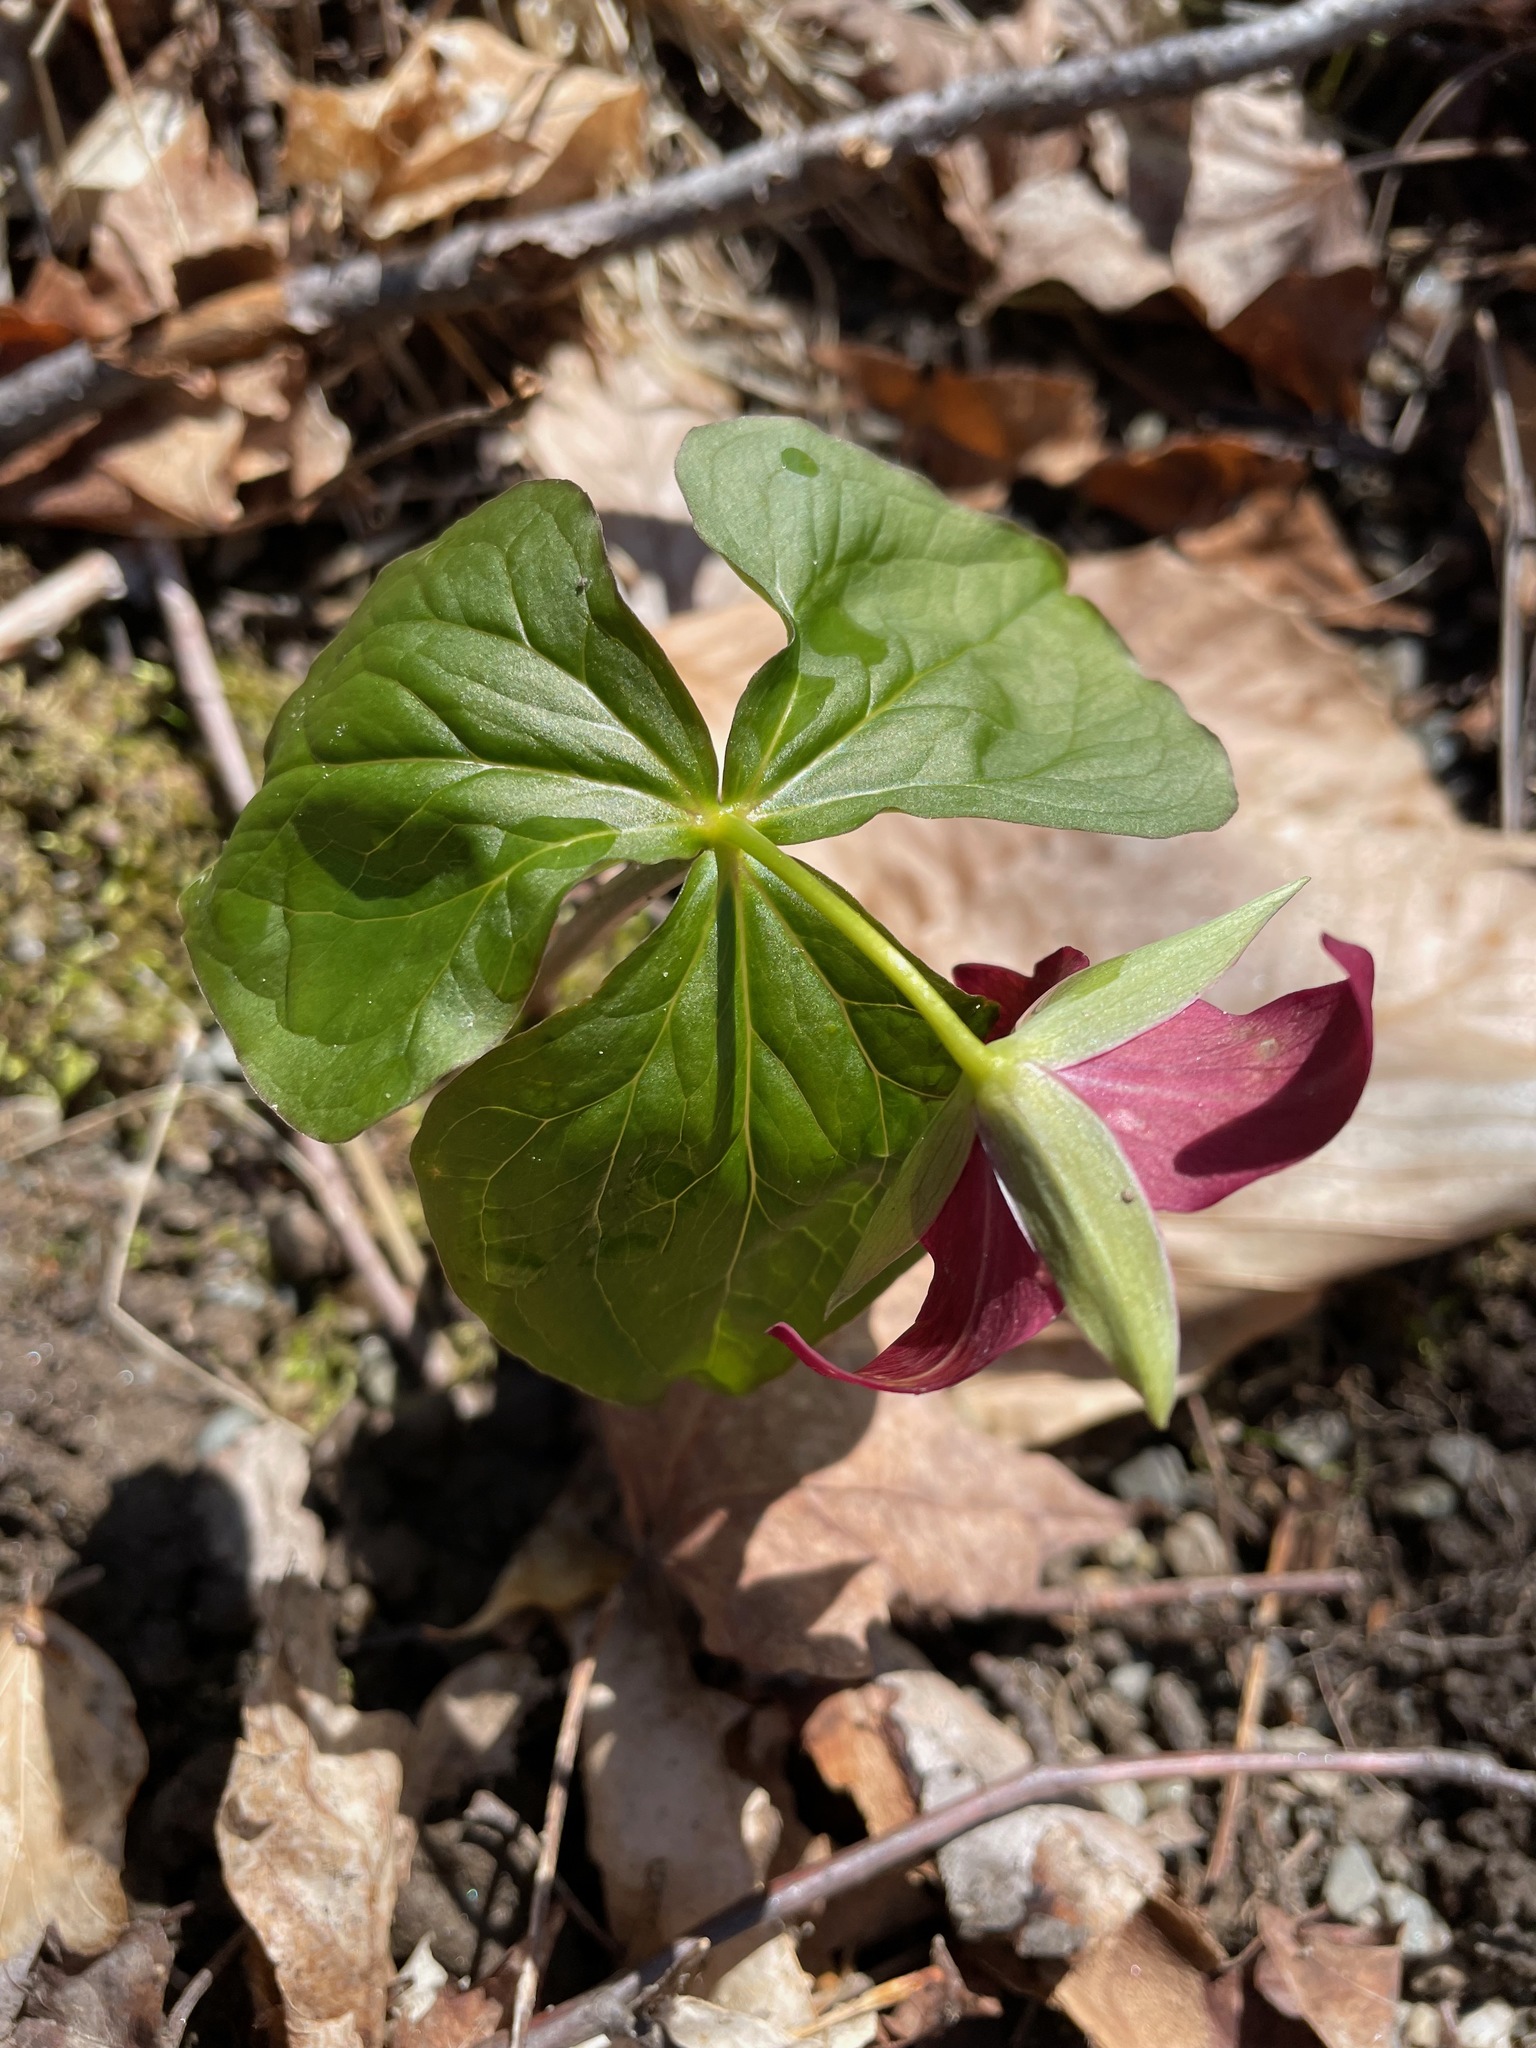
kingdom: Plantae
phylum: Tracheophyta
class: Liliopsida
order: Liliales
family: Melanthiaceae
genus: Trillium
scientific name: Trillium erectum
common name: Purple trillium
